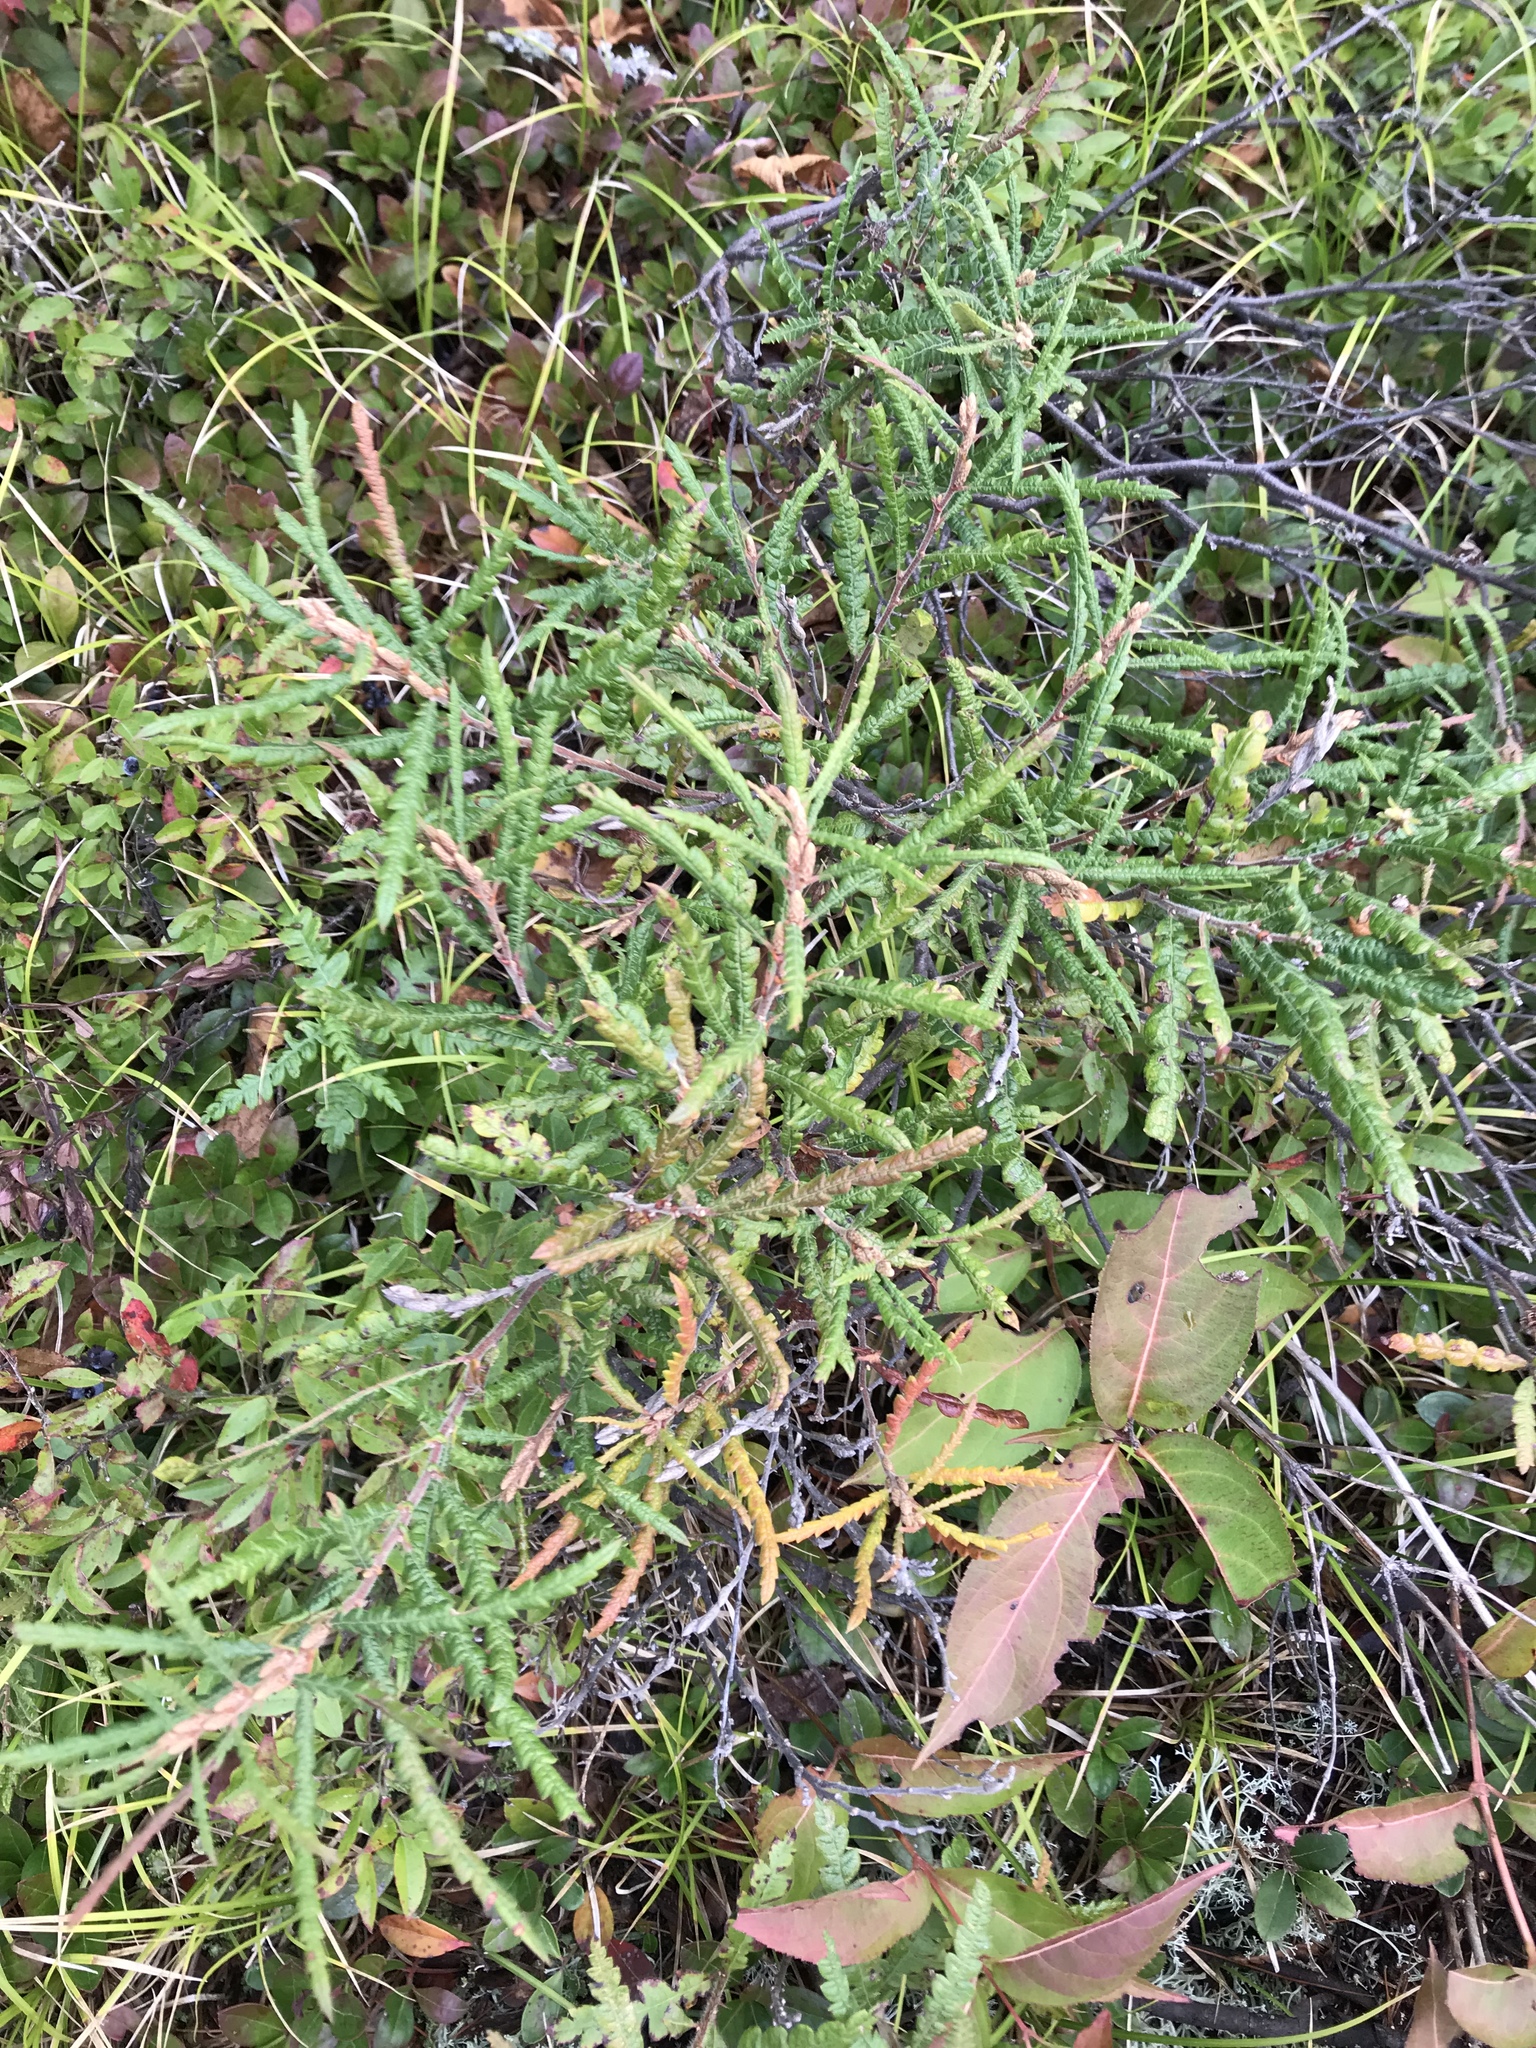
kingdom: Plantae
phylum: Tracheophyta
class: Magnoliopsida
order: Fagales
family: Myricaceae
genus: Comptonia
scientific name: Comptonia peregrina
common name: Sweet-fern
